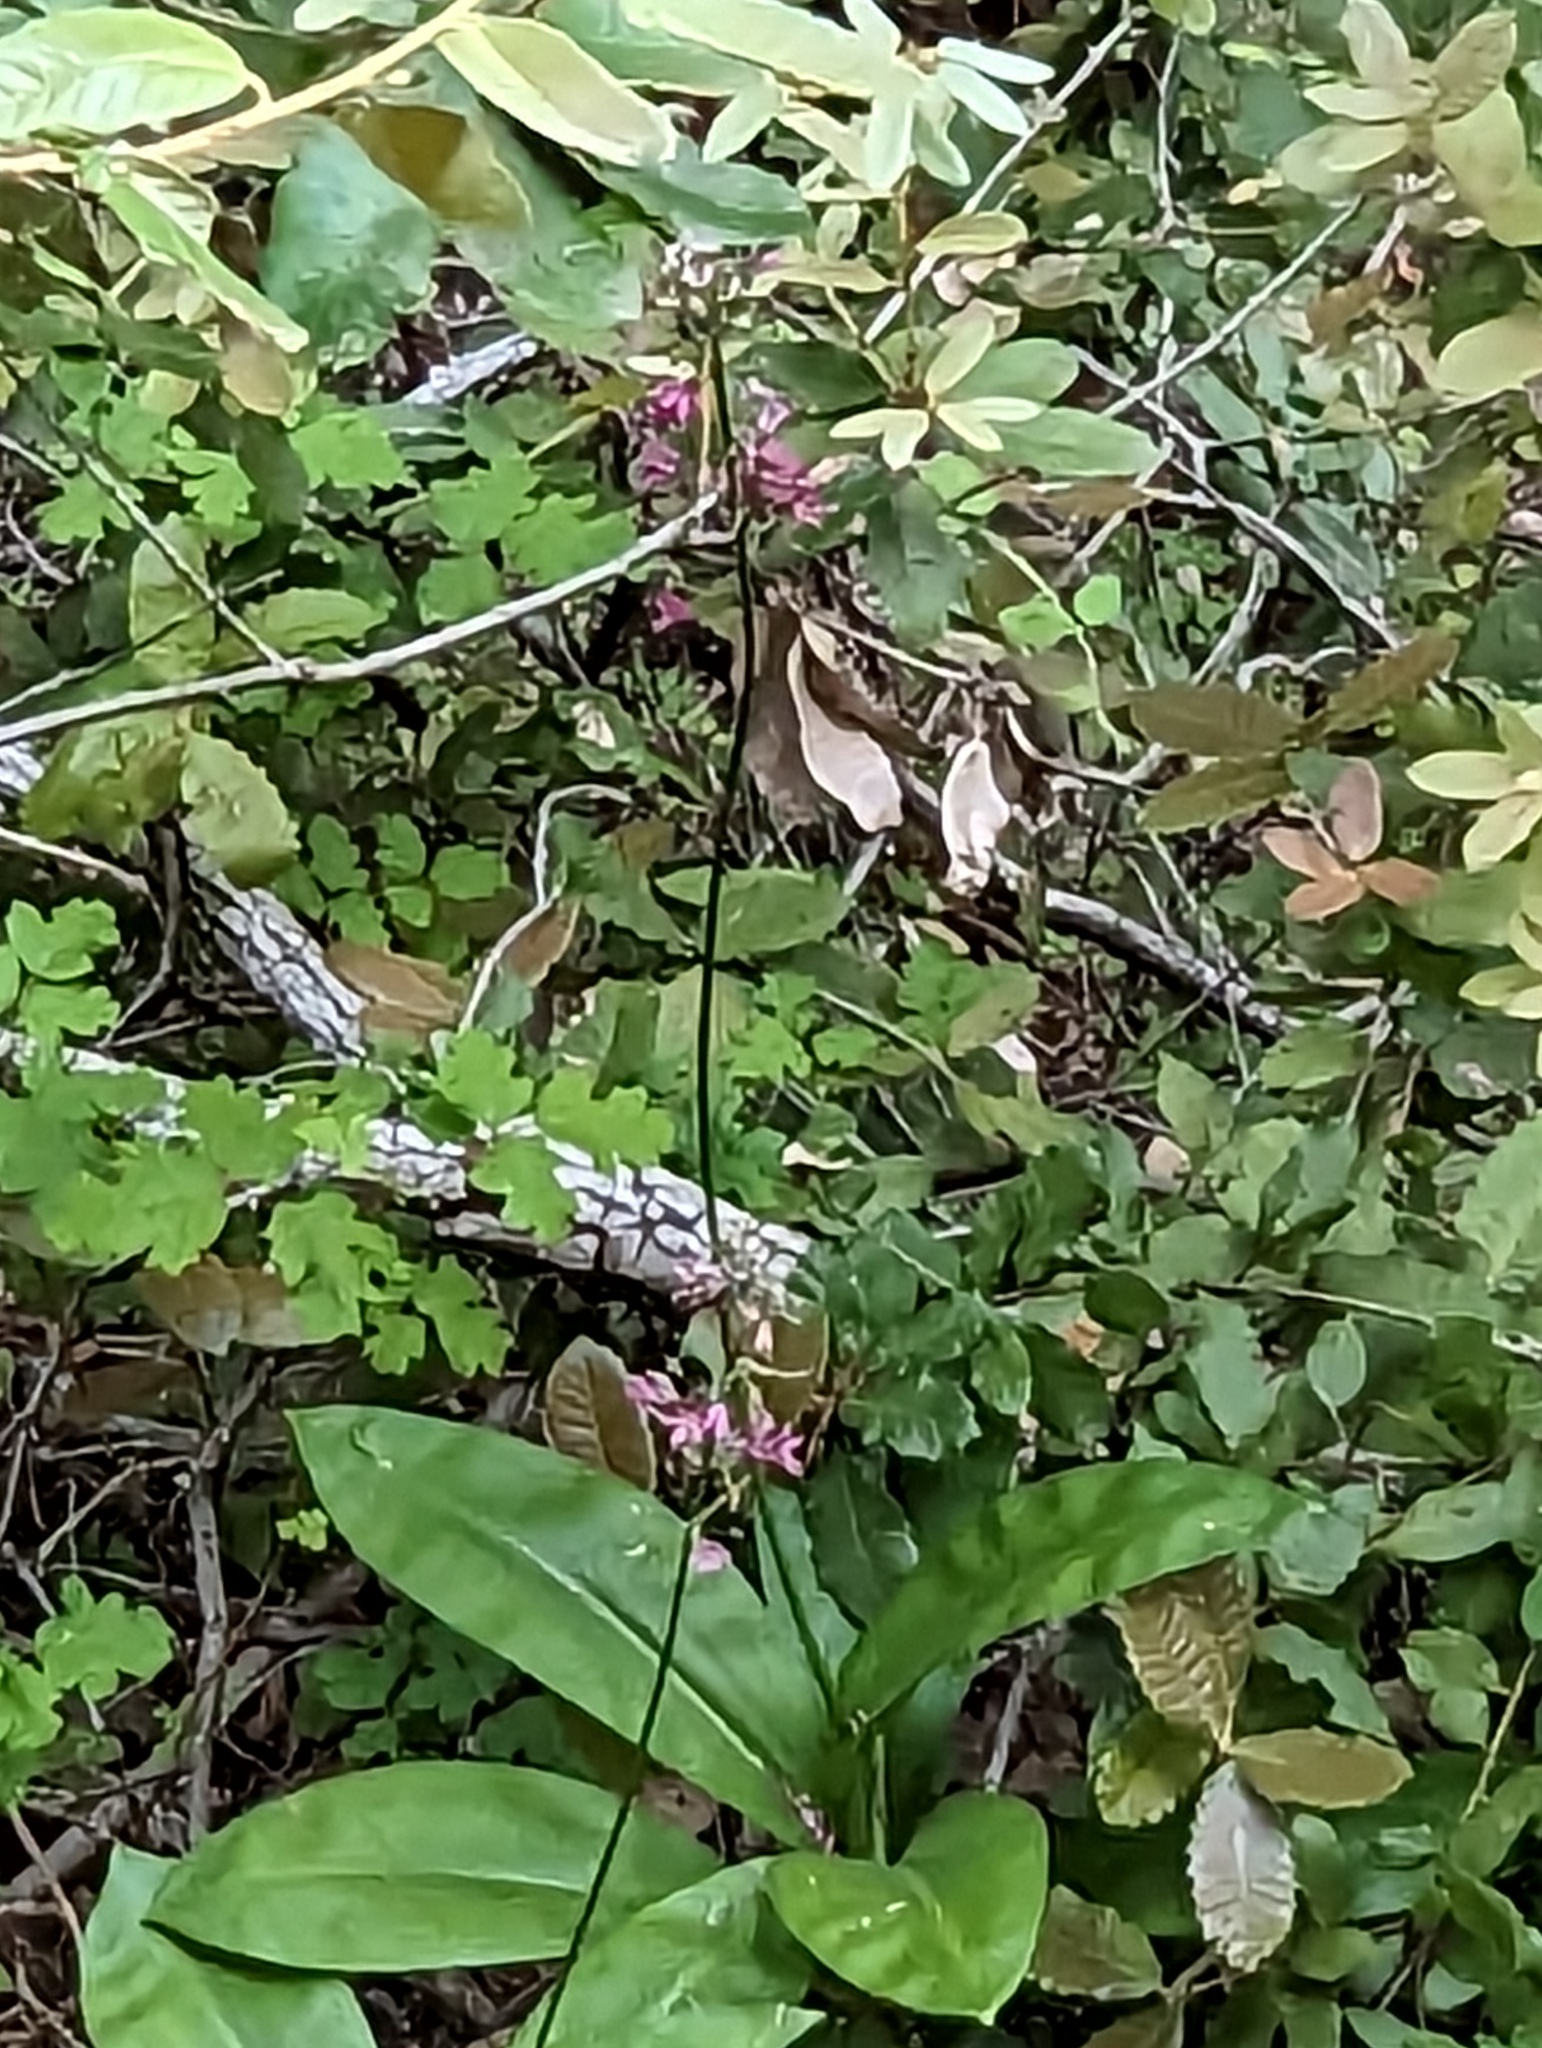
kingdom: Plantae
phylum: Tracheophyta
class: Liliopsida
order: Liliales
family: Liliaceae
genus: Clintonia
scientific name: Clintonia andrewsiana
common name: Red clintonia
